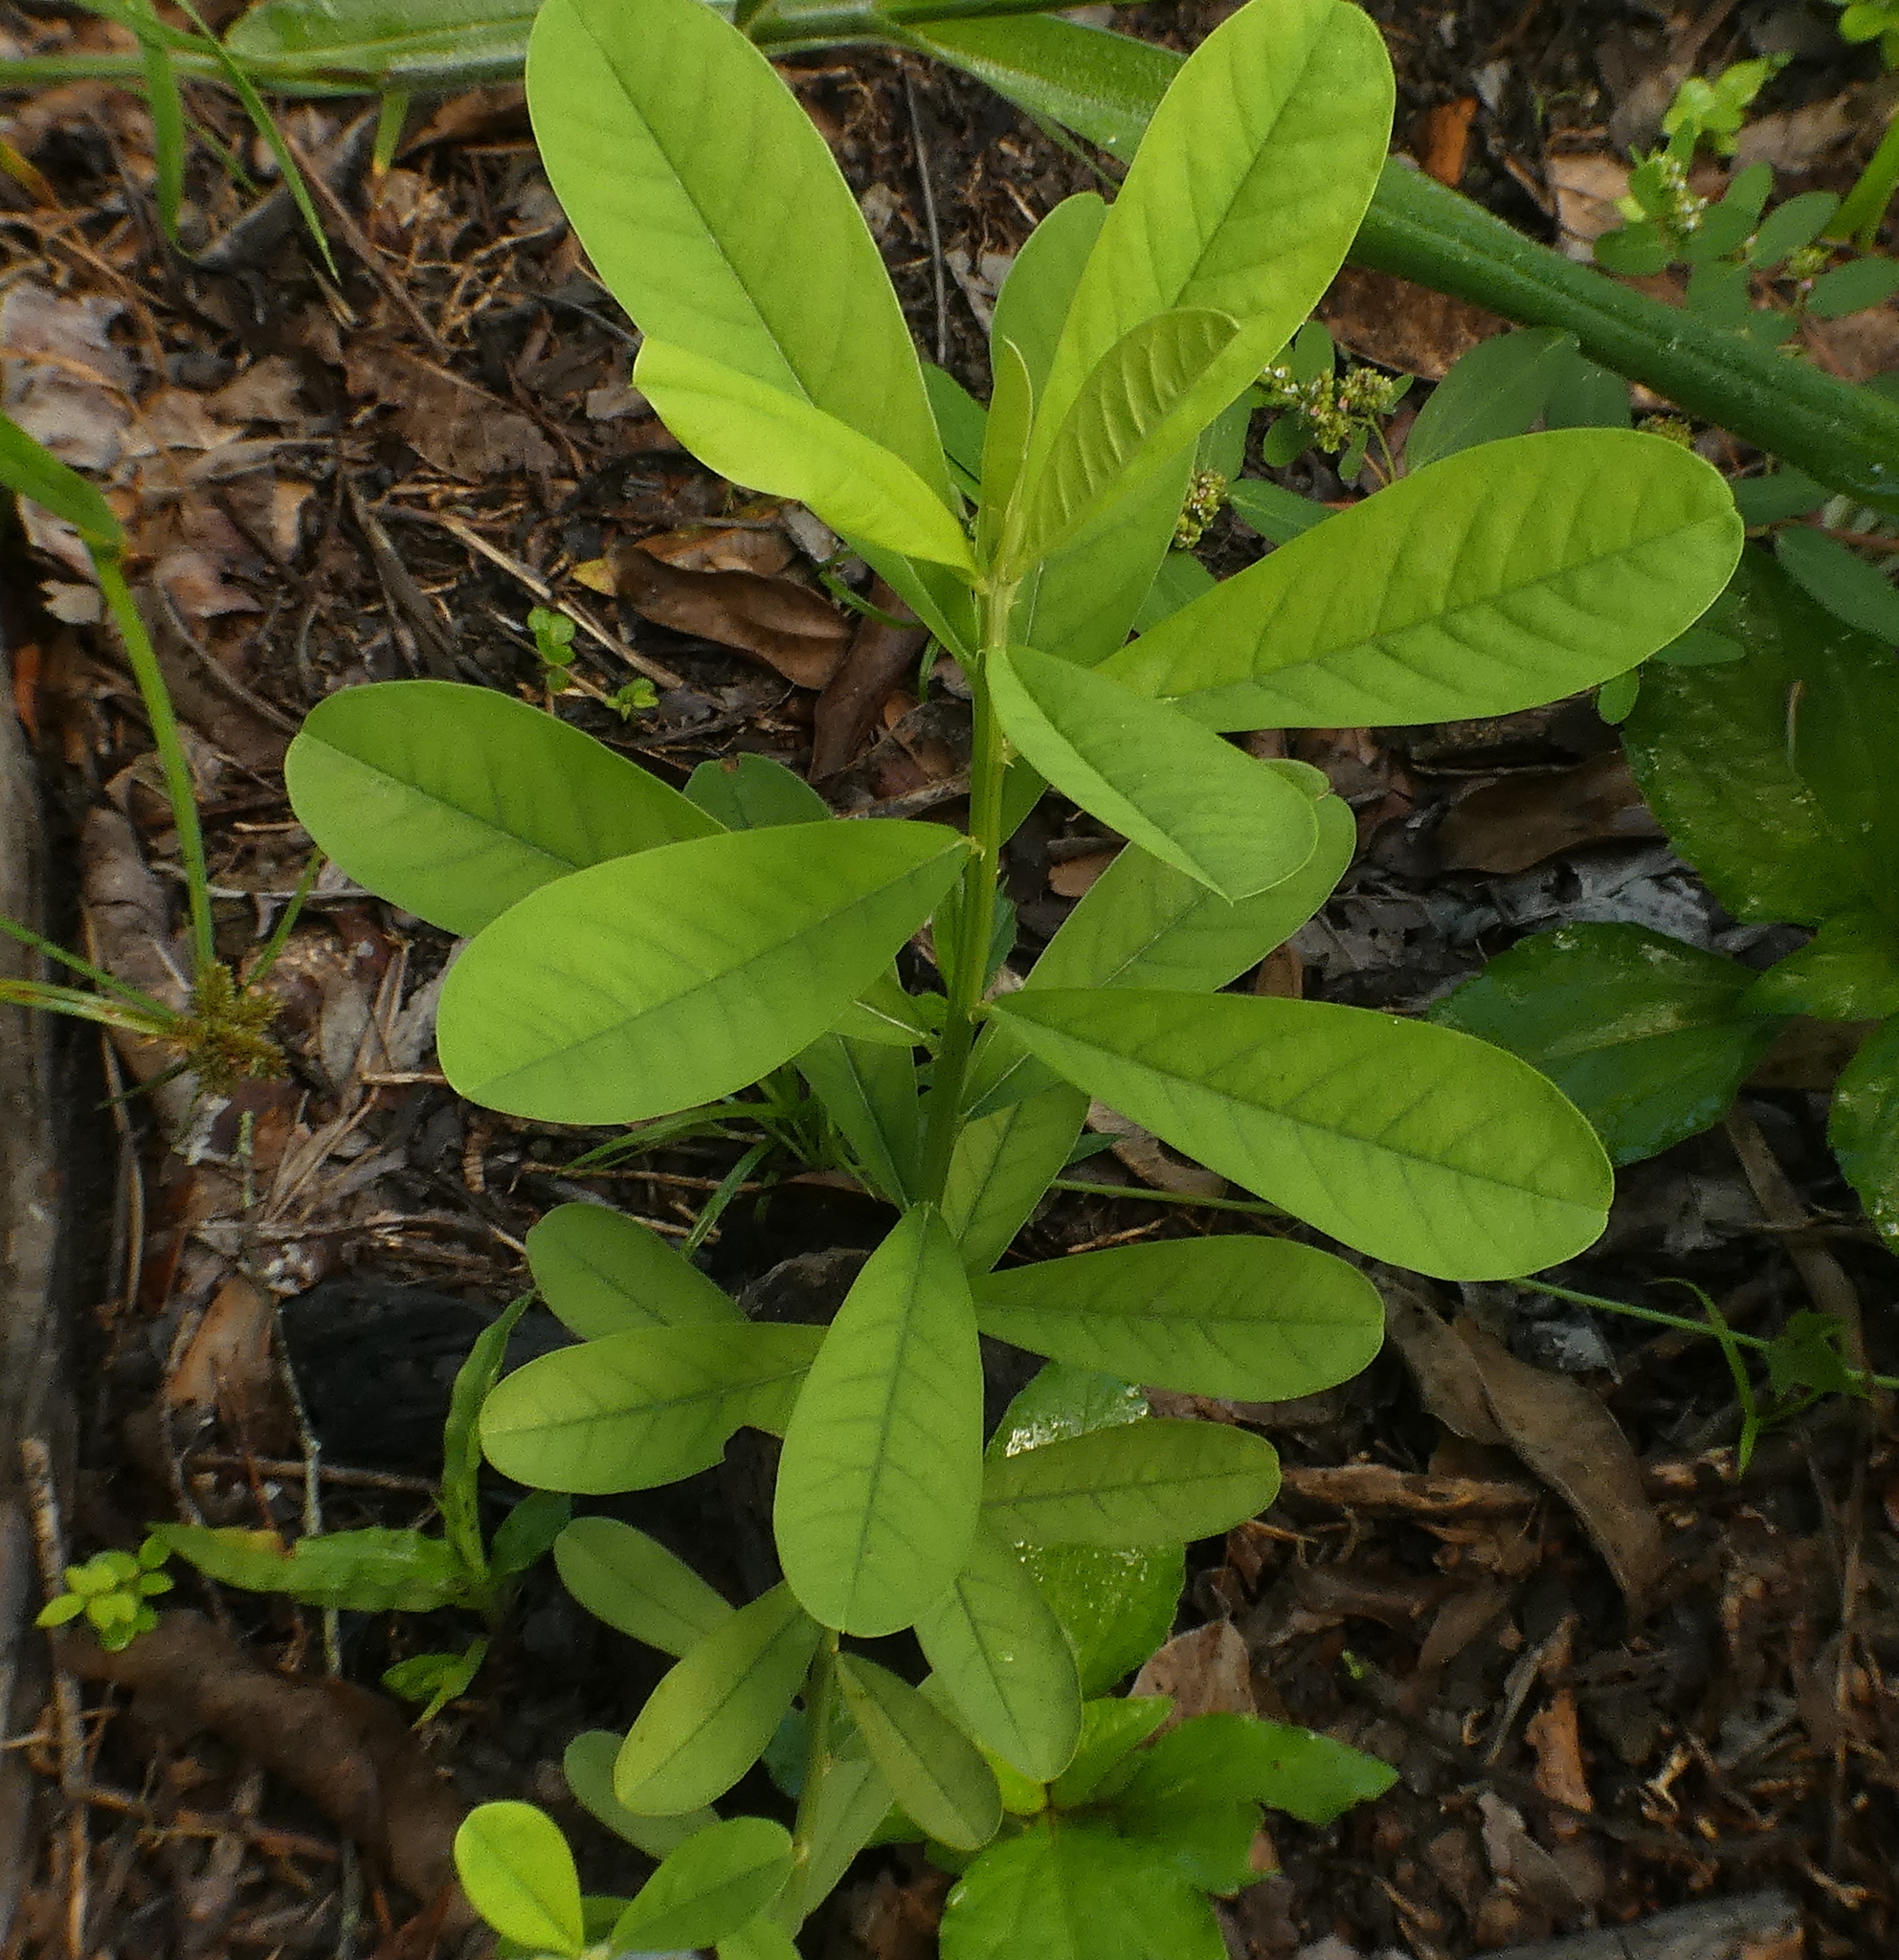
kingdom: Plantae
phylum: Tracheophyta
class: Magnoliopsida
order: Fabales
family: Fabaceae
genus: Crotalaria
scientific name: Crotalaria retusa
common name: Rattleweed
